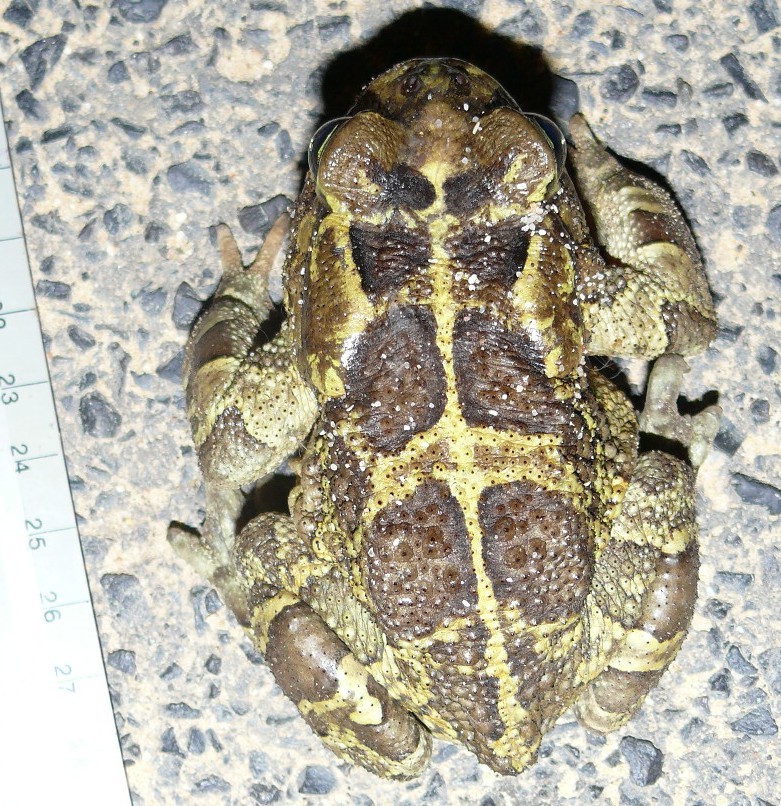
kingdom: Animalia
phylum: Chordata
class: Amphibia
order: Anura
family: Bufonidae
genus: Sclerophrys
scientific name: Sclerophrys pantherina
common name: Panther toad
